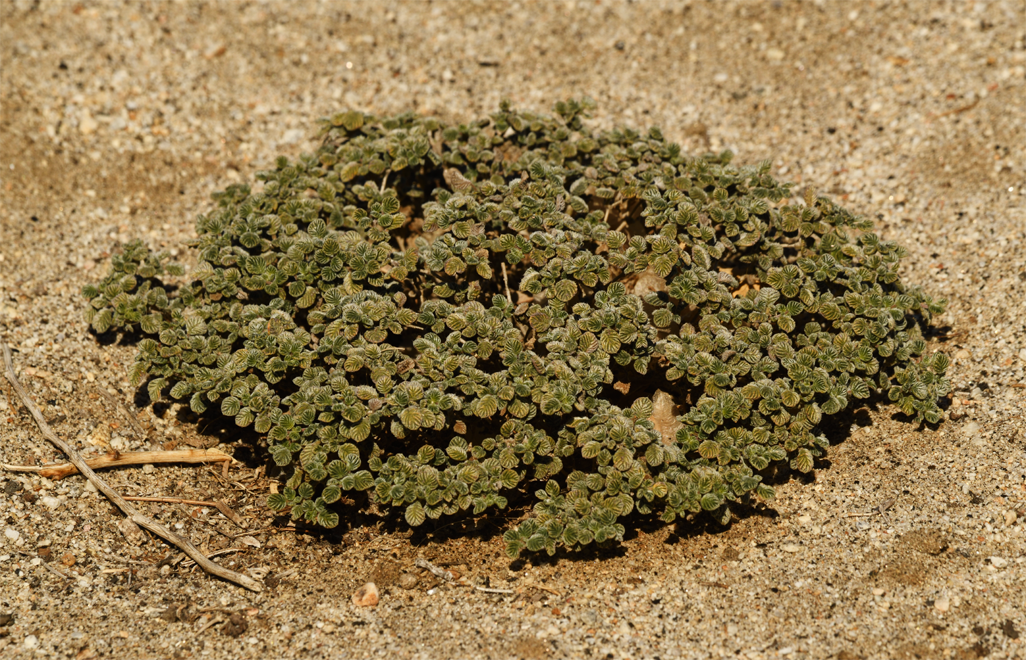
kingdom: Plantae
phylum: Tracheophyta
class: Magnoliopsida
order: Boraginales
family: Ehretiaceae
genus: Tiquilia
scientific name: Tiquilia plicata
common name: Fan-leaf tiquilia
